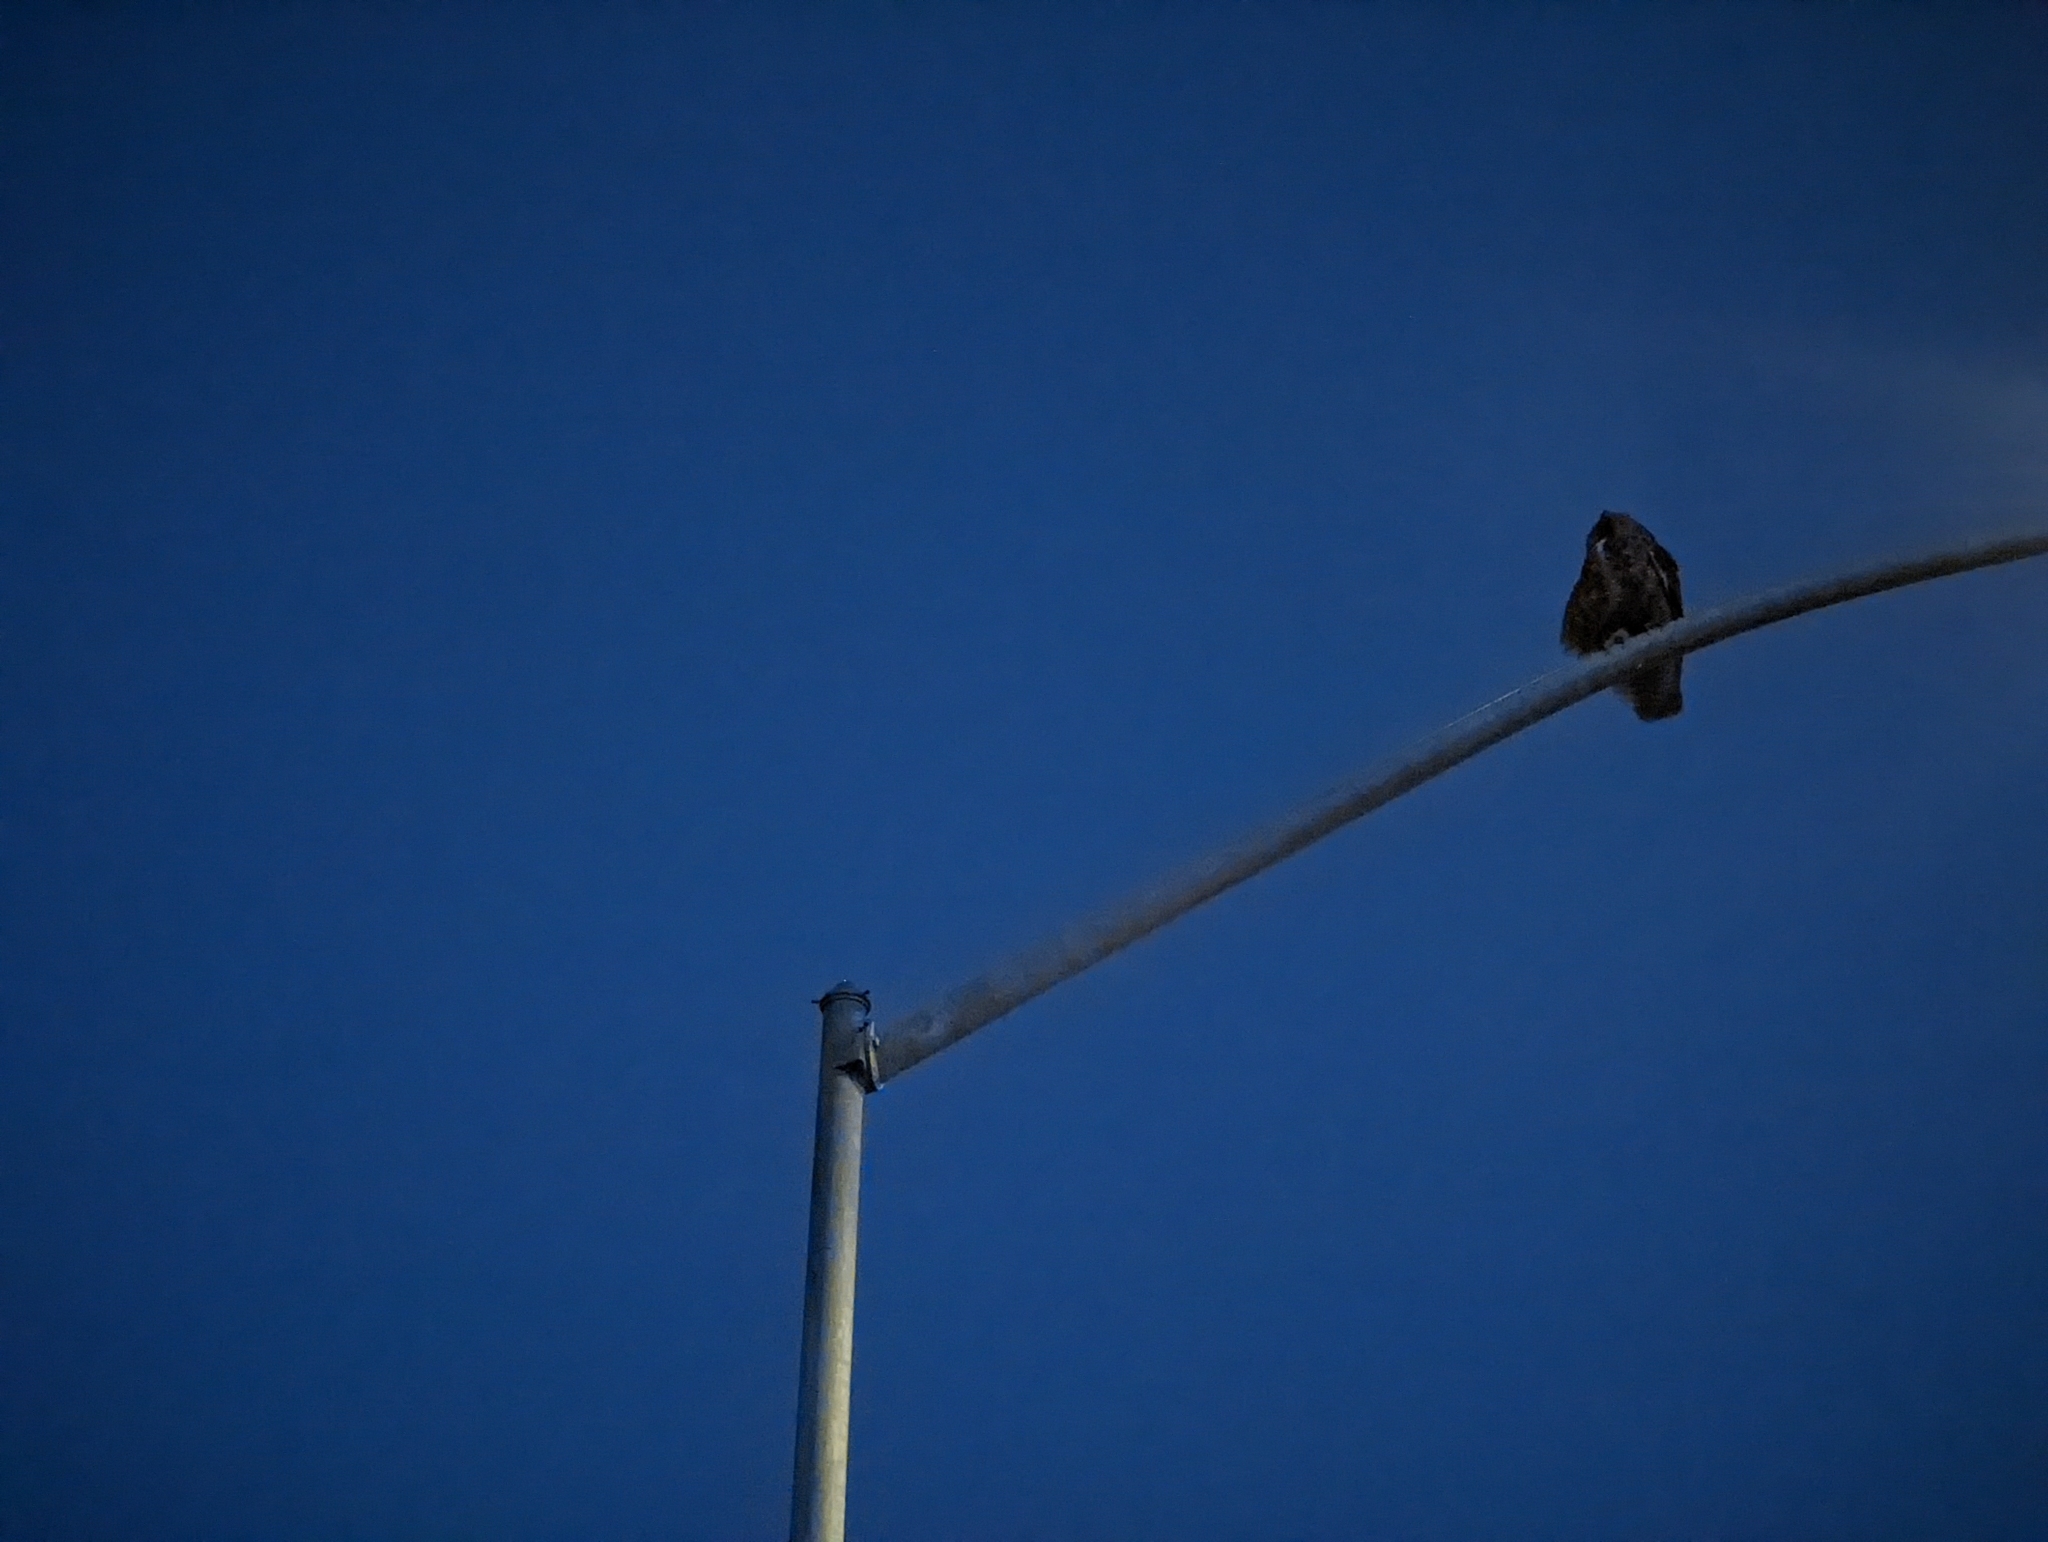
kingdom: Animalia
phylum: Chordata
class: Aves
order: Strigiformes
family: Strigidae
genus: Bubo
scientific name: Bubo virginianus
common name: Great horned owl
